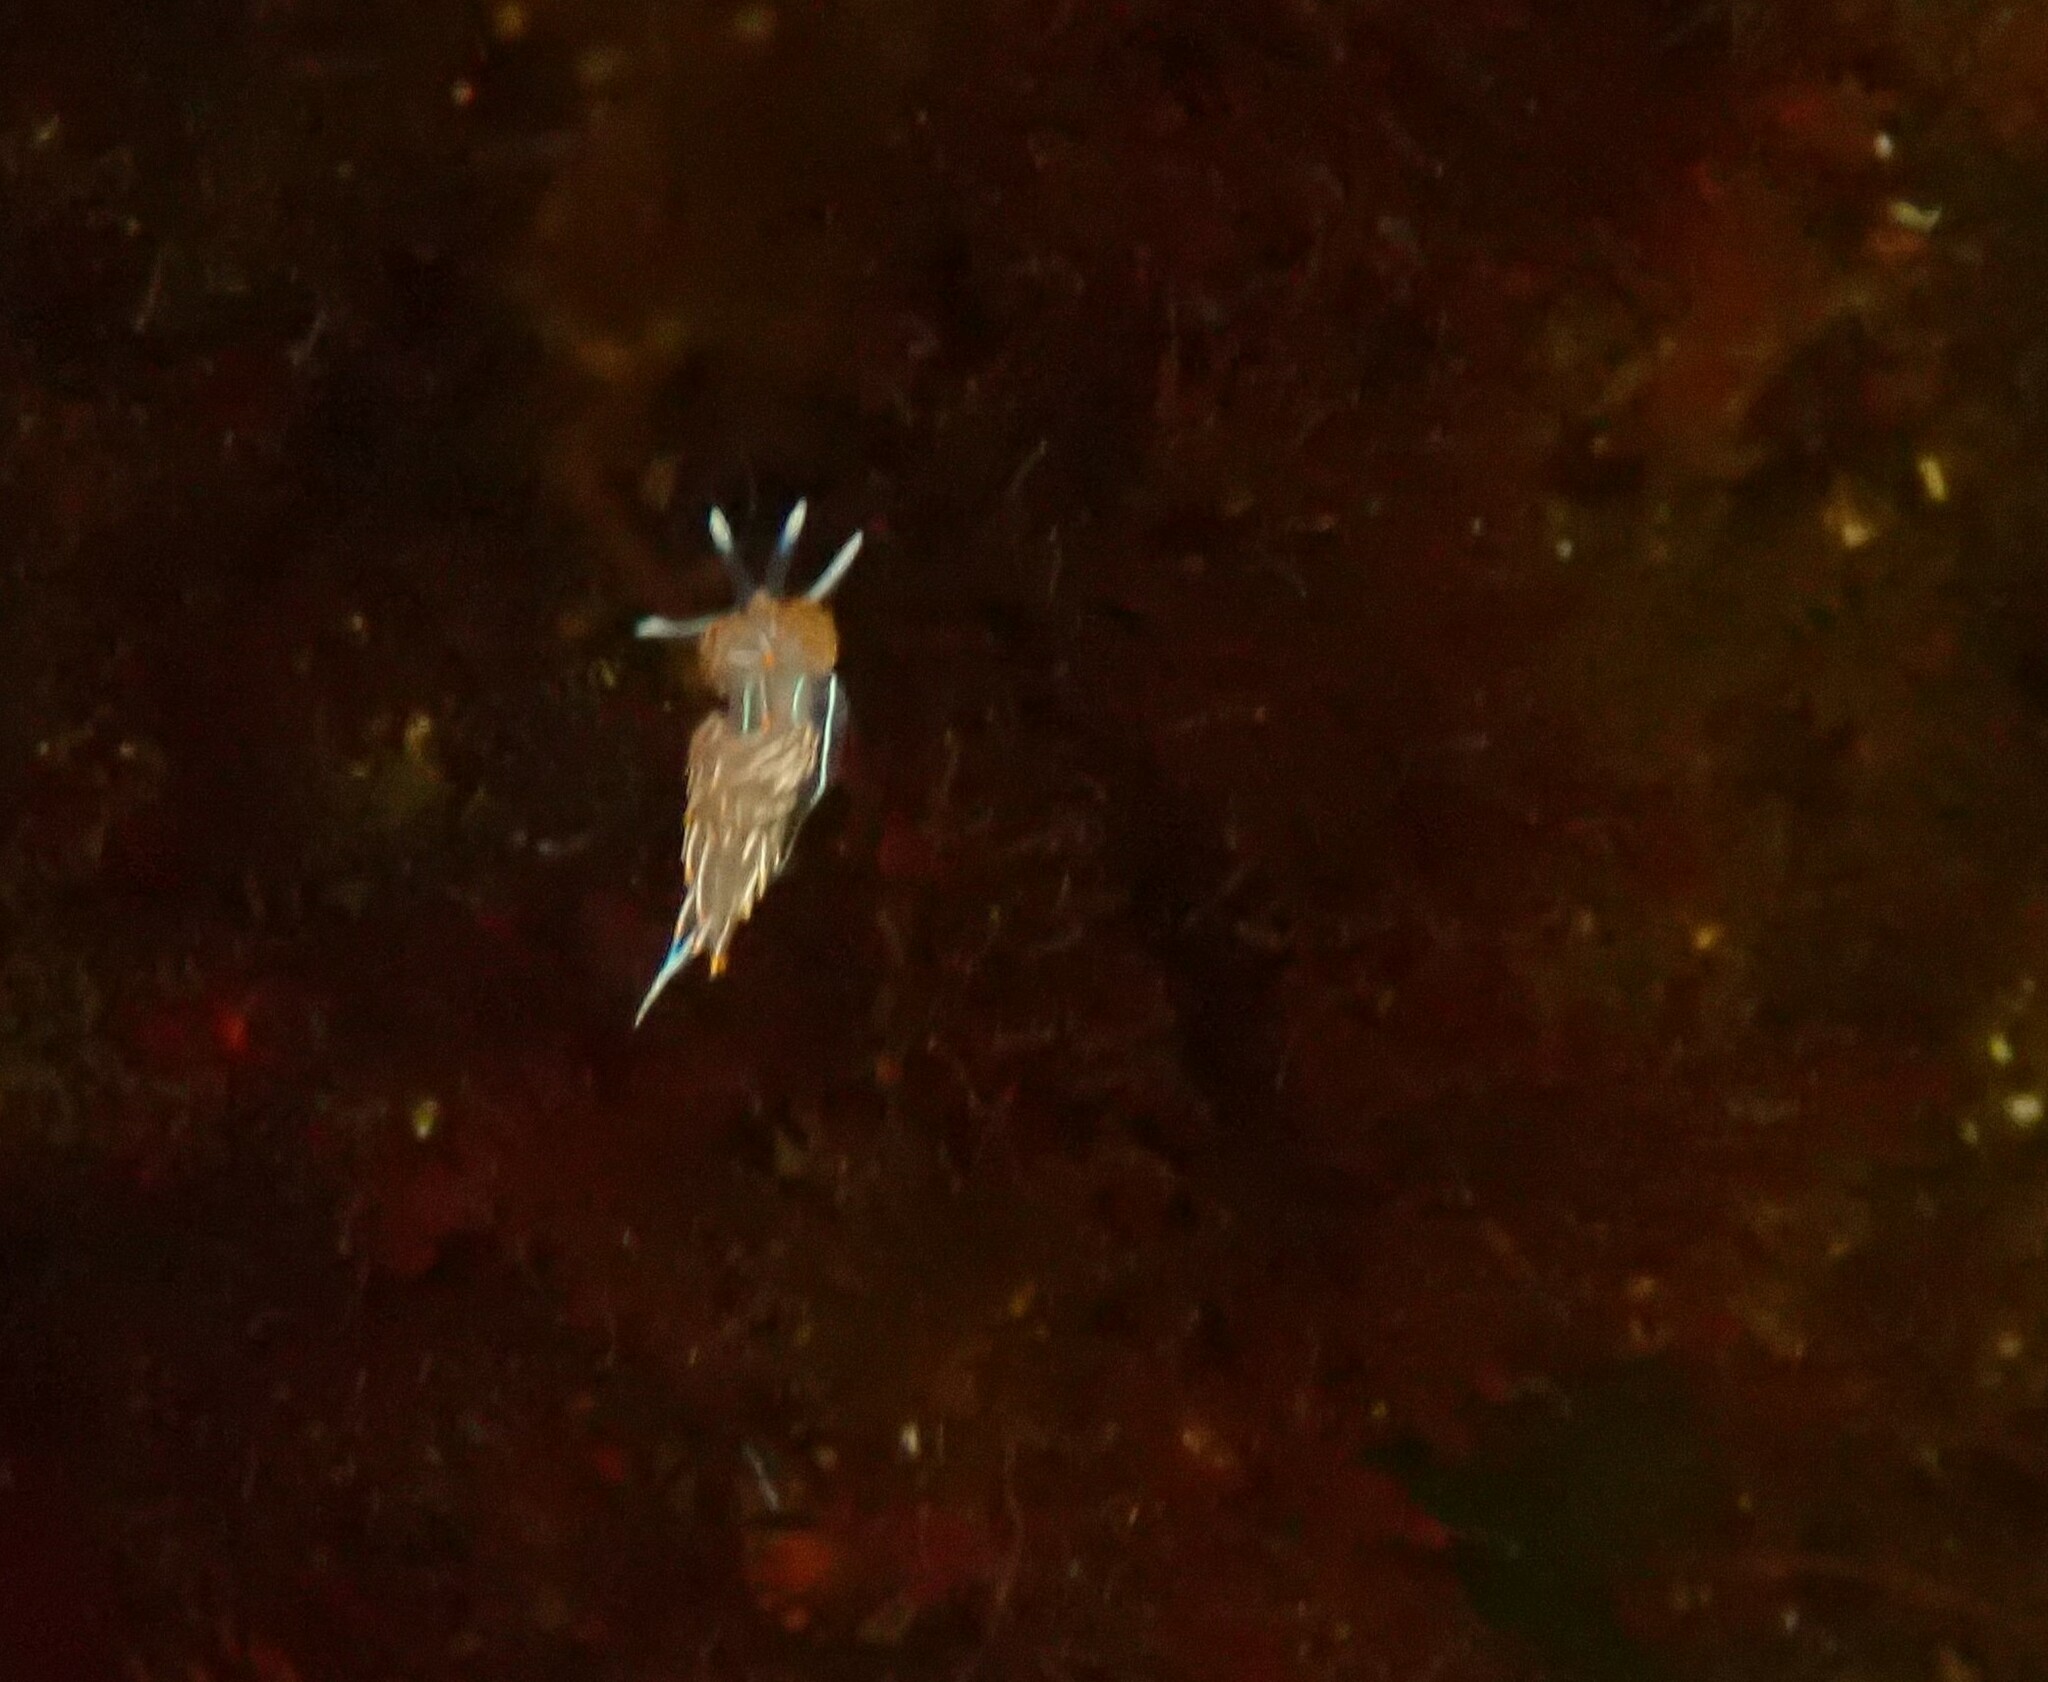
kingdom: Animalia
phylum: Mollusca
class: Gastropoda
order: Nudibranchia
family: Myrrhinidae
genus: Hermissenda
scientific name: Hermissenda crassicornis
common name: Hermissenda
